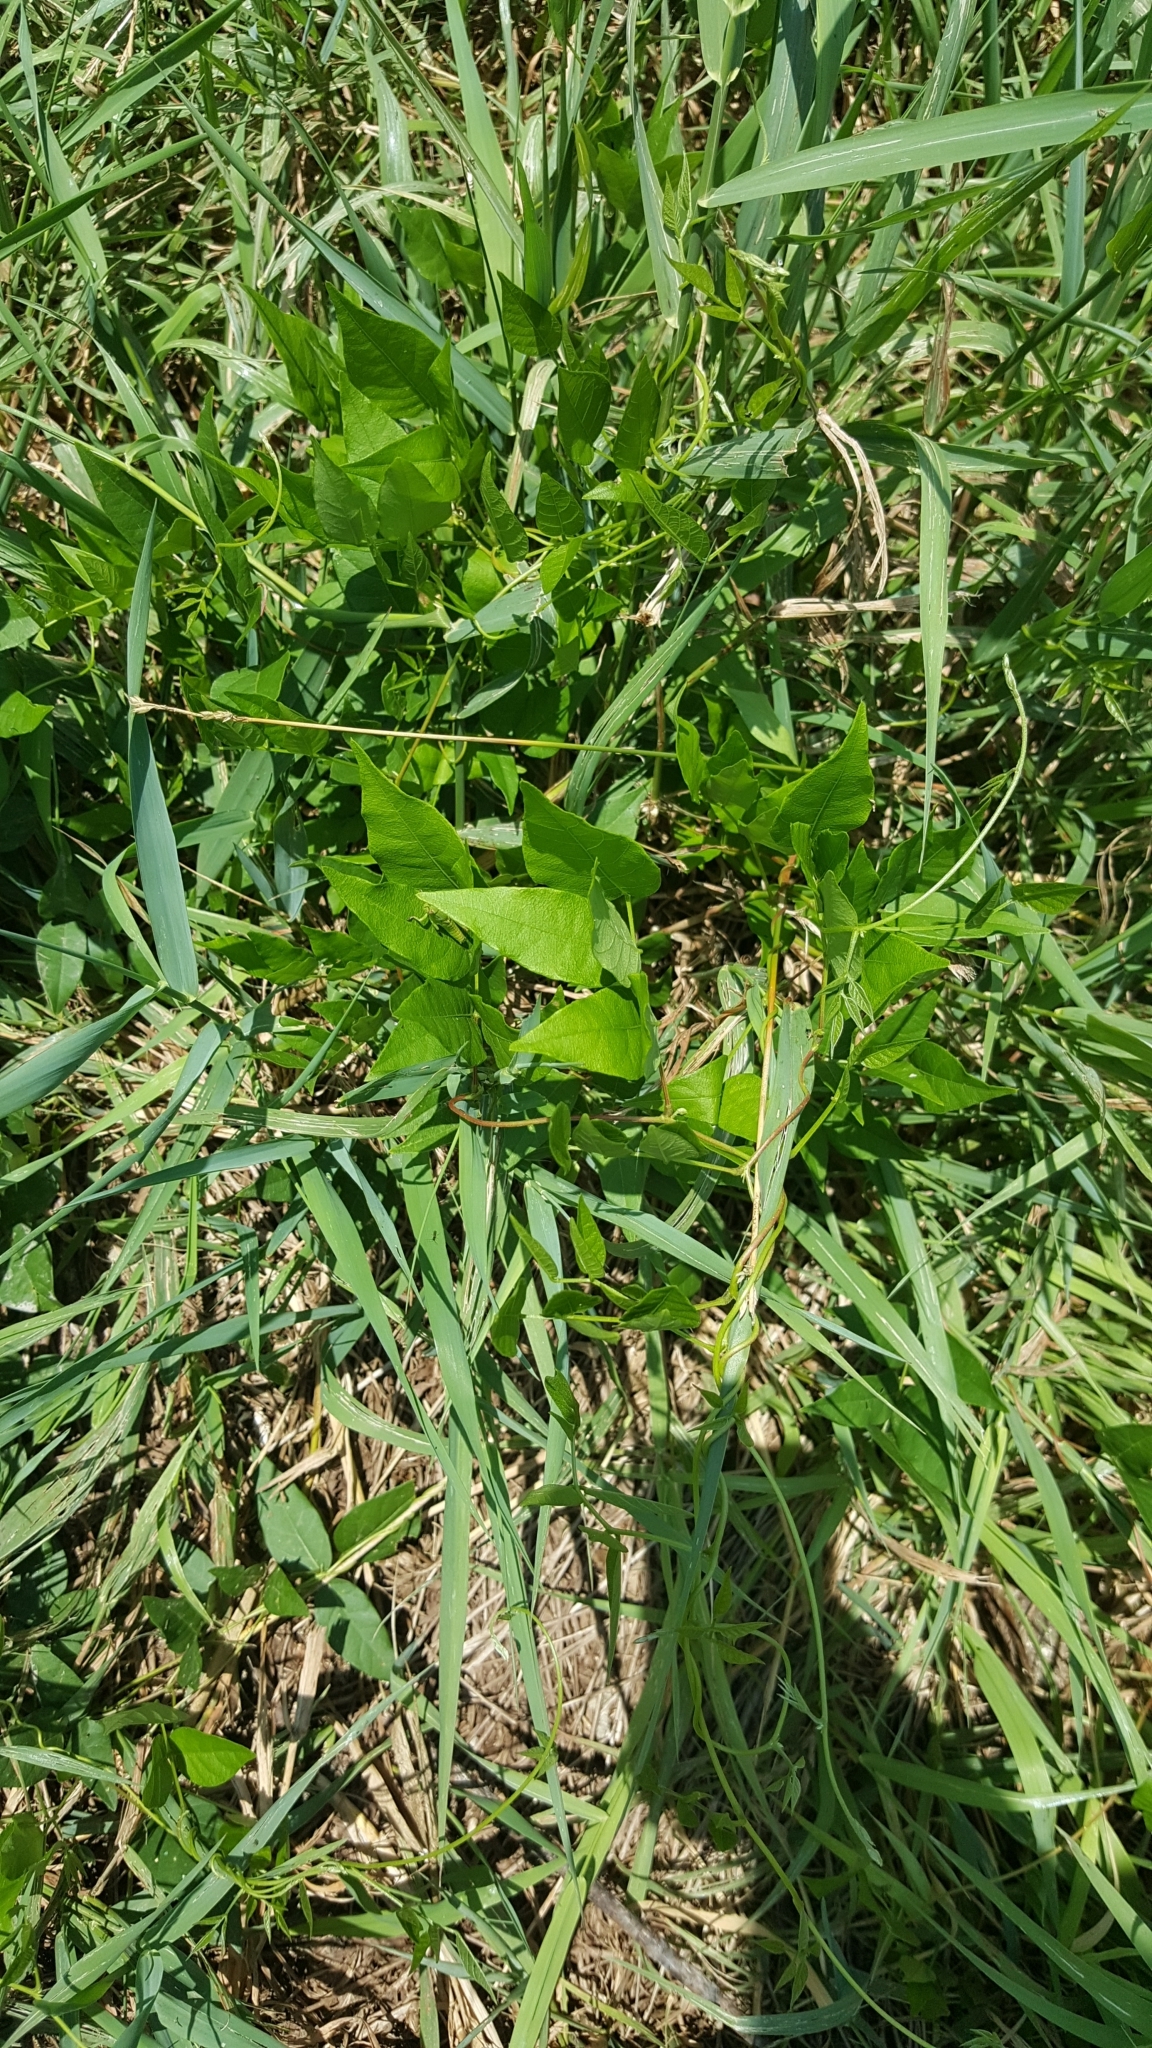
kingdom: Plantae
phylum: Tracheophyta
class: Magnoliopsida
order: Fabales
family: Fabaceae
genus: Apios
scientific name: Apios americana
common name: American potato-bean
